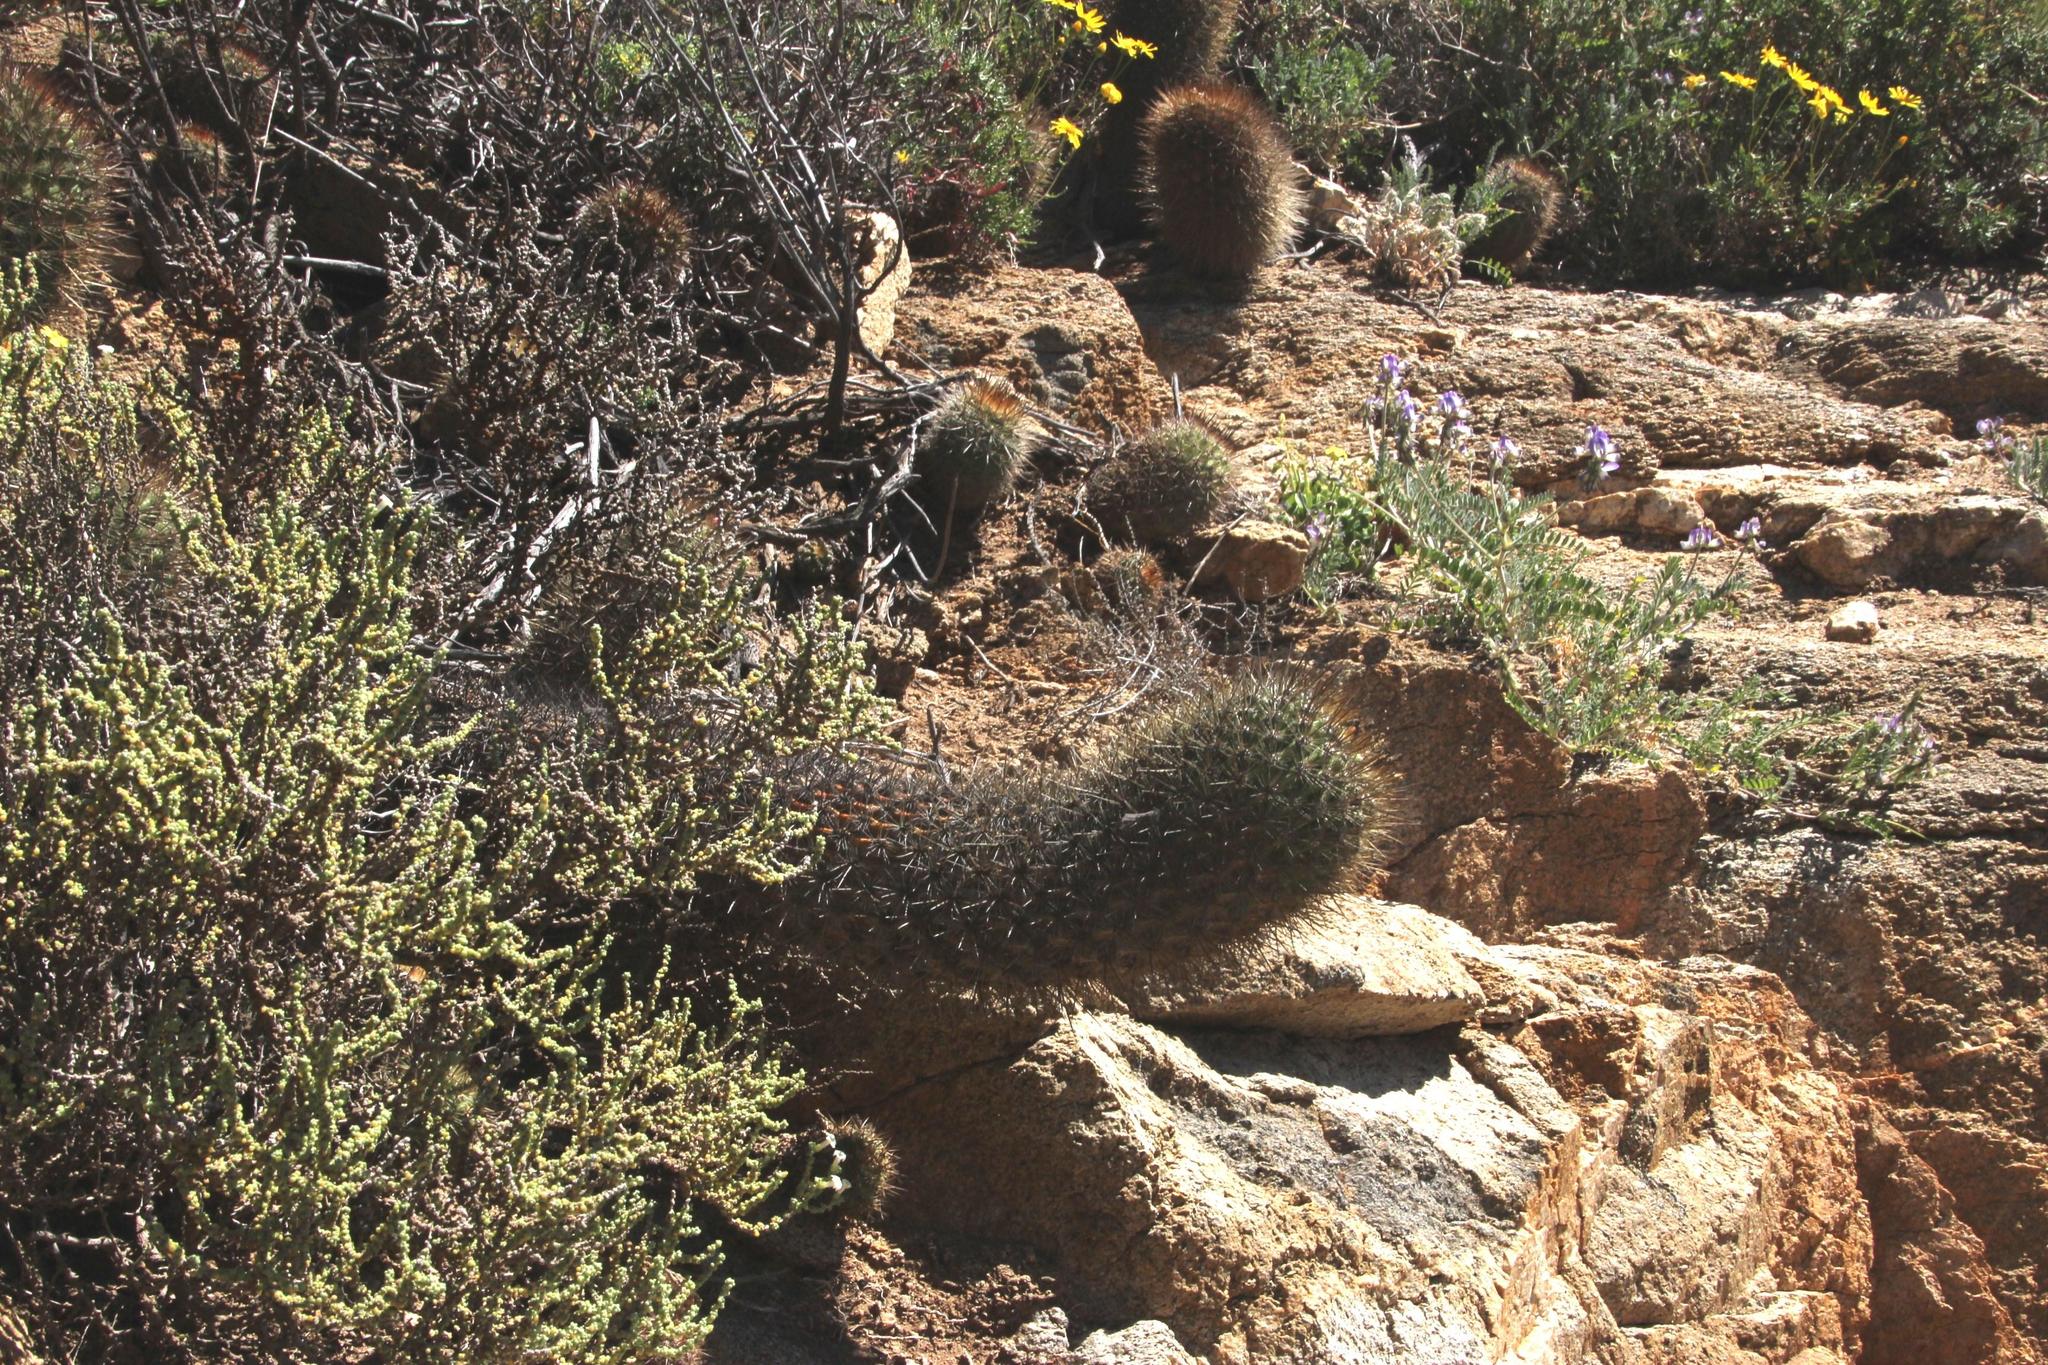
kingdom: Plantae
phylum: Tracheophyta
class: Magnoliopsida
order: Caryophyllales
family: Cactaceae
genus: Eriosyce
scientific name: Eriosyce subgibbosa
